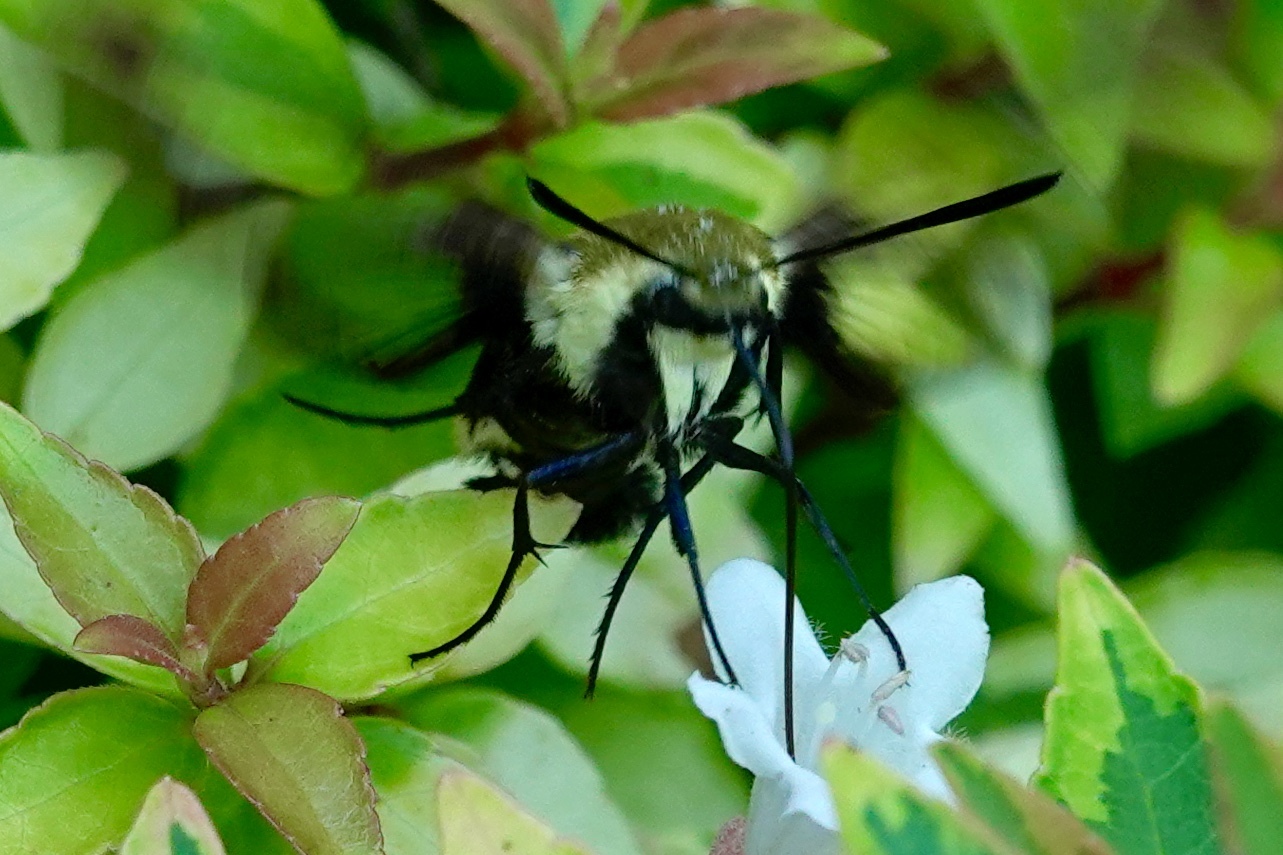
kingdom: Animalia
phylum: Arthropoda
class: Insecta
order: Lepidoptera
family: Sphingidae
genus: Hemaris
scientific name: Hemaris diffinis
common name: Bumblebee moth
